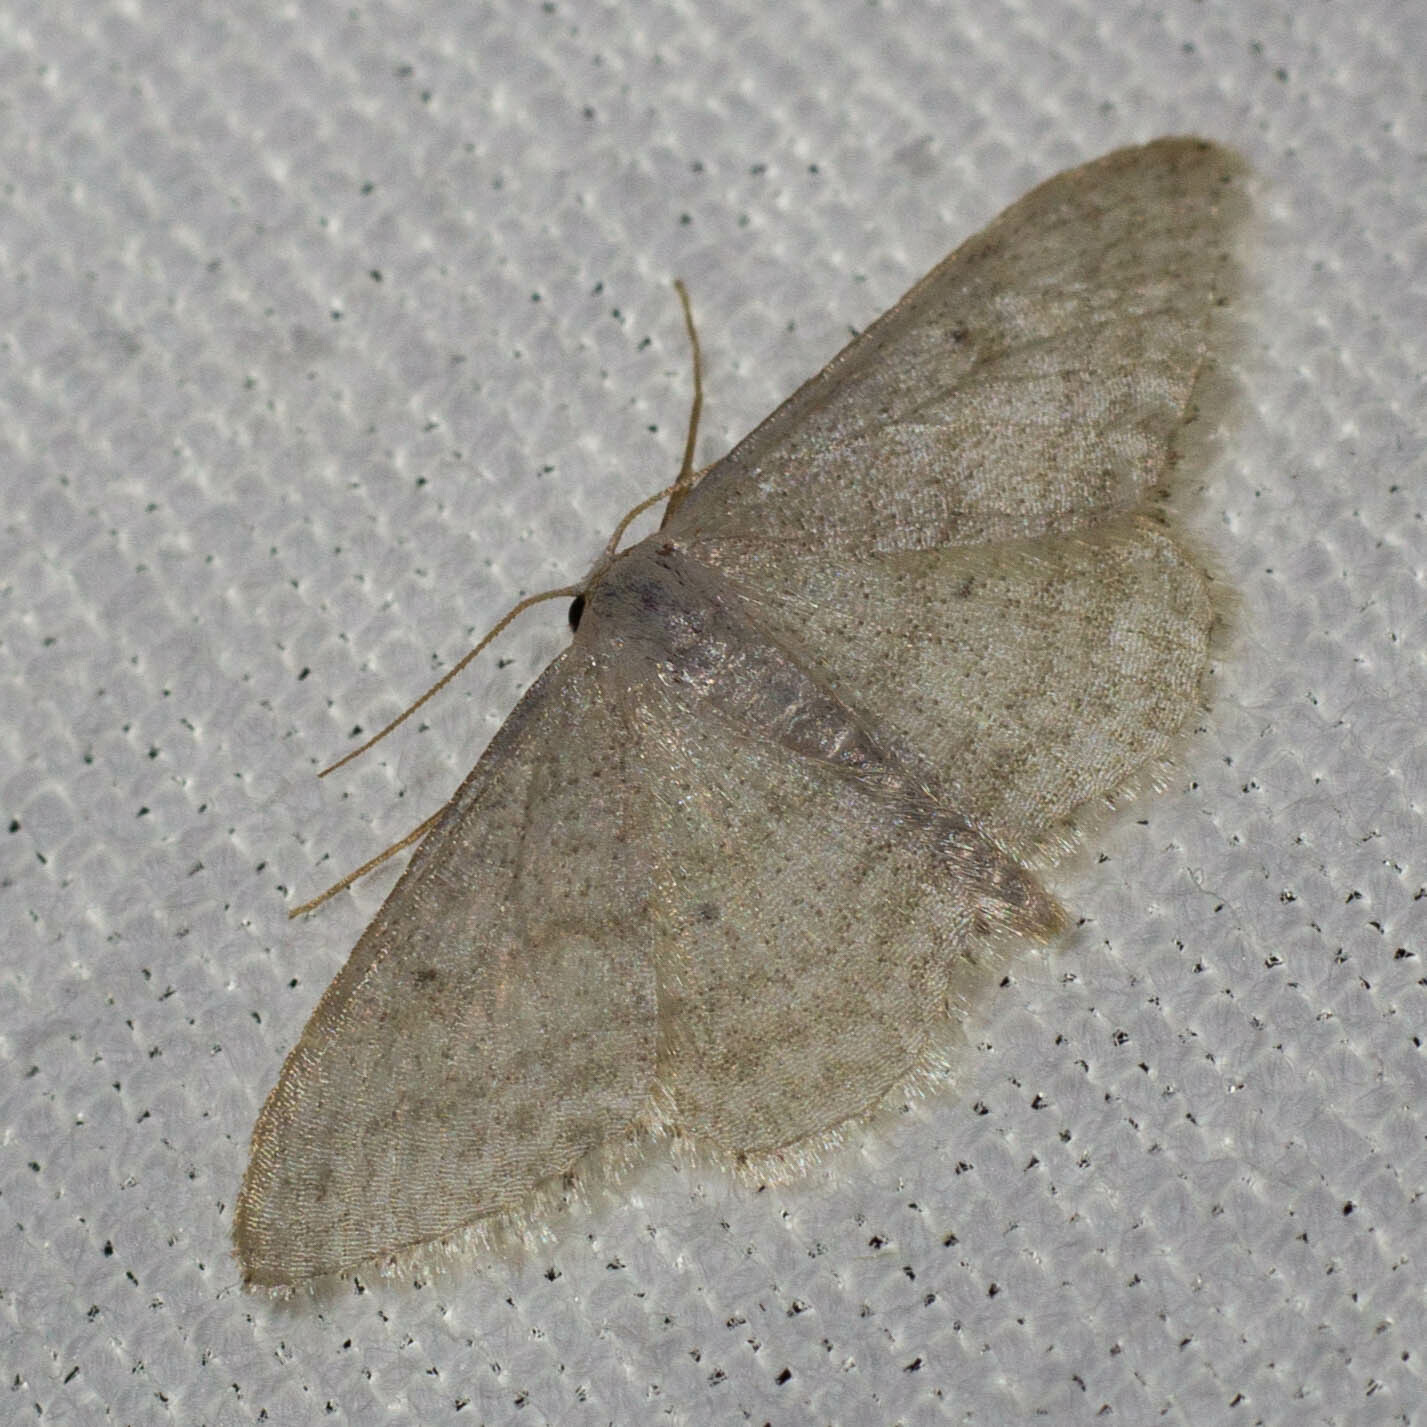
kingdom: Animalia
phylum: Arthropoda
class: Insecta
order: Lepidoptera
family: Geometridae
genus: Idaea
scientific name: Idaea subsericeata
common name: Satin wave
